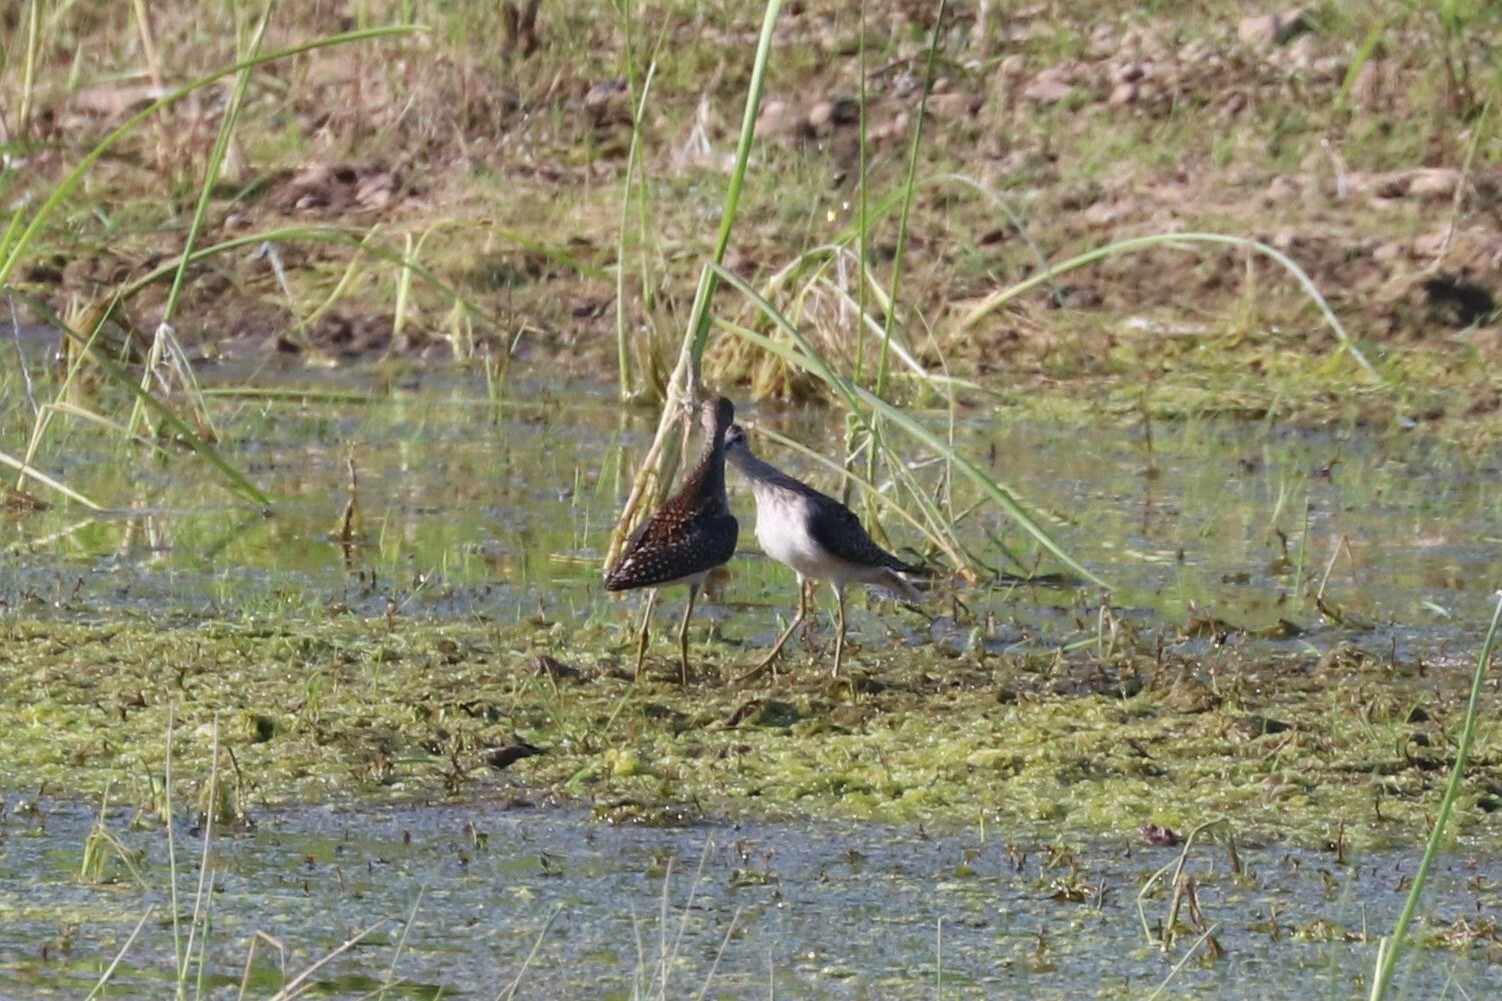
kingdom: Animalia
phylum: Chordata
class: Aves
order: Charadriiformes
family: Scolopacidae
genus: Tringa
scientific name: Tringa glareola
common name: Wood sandpiper
